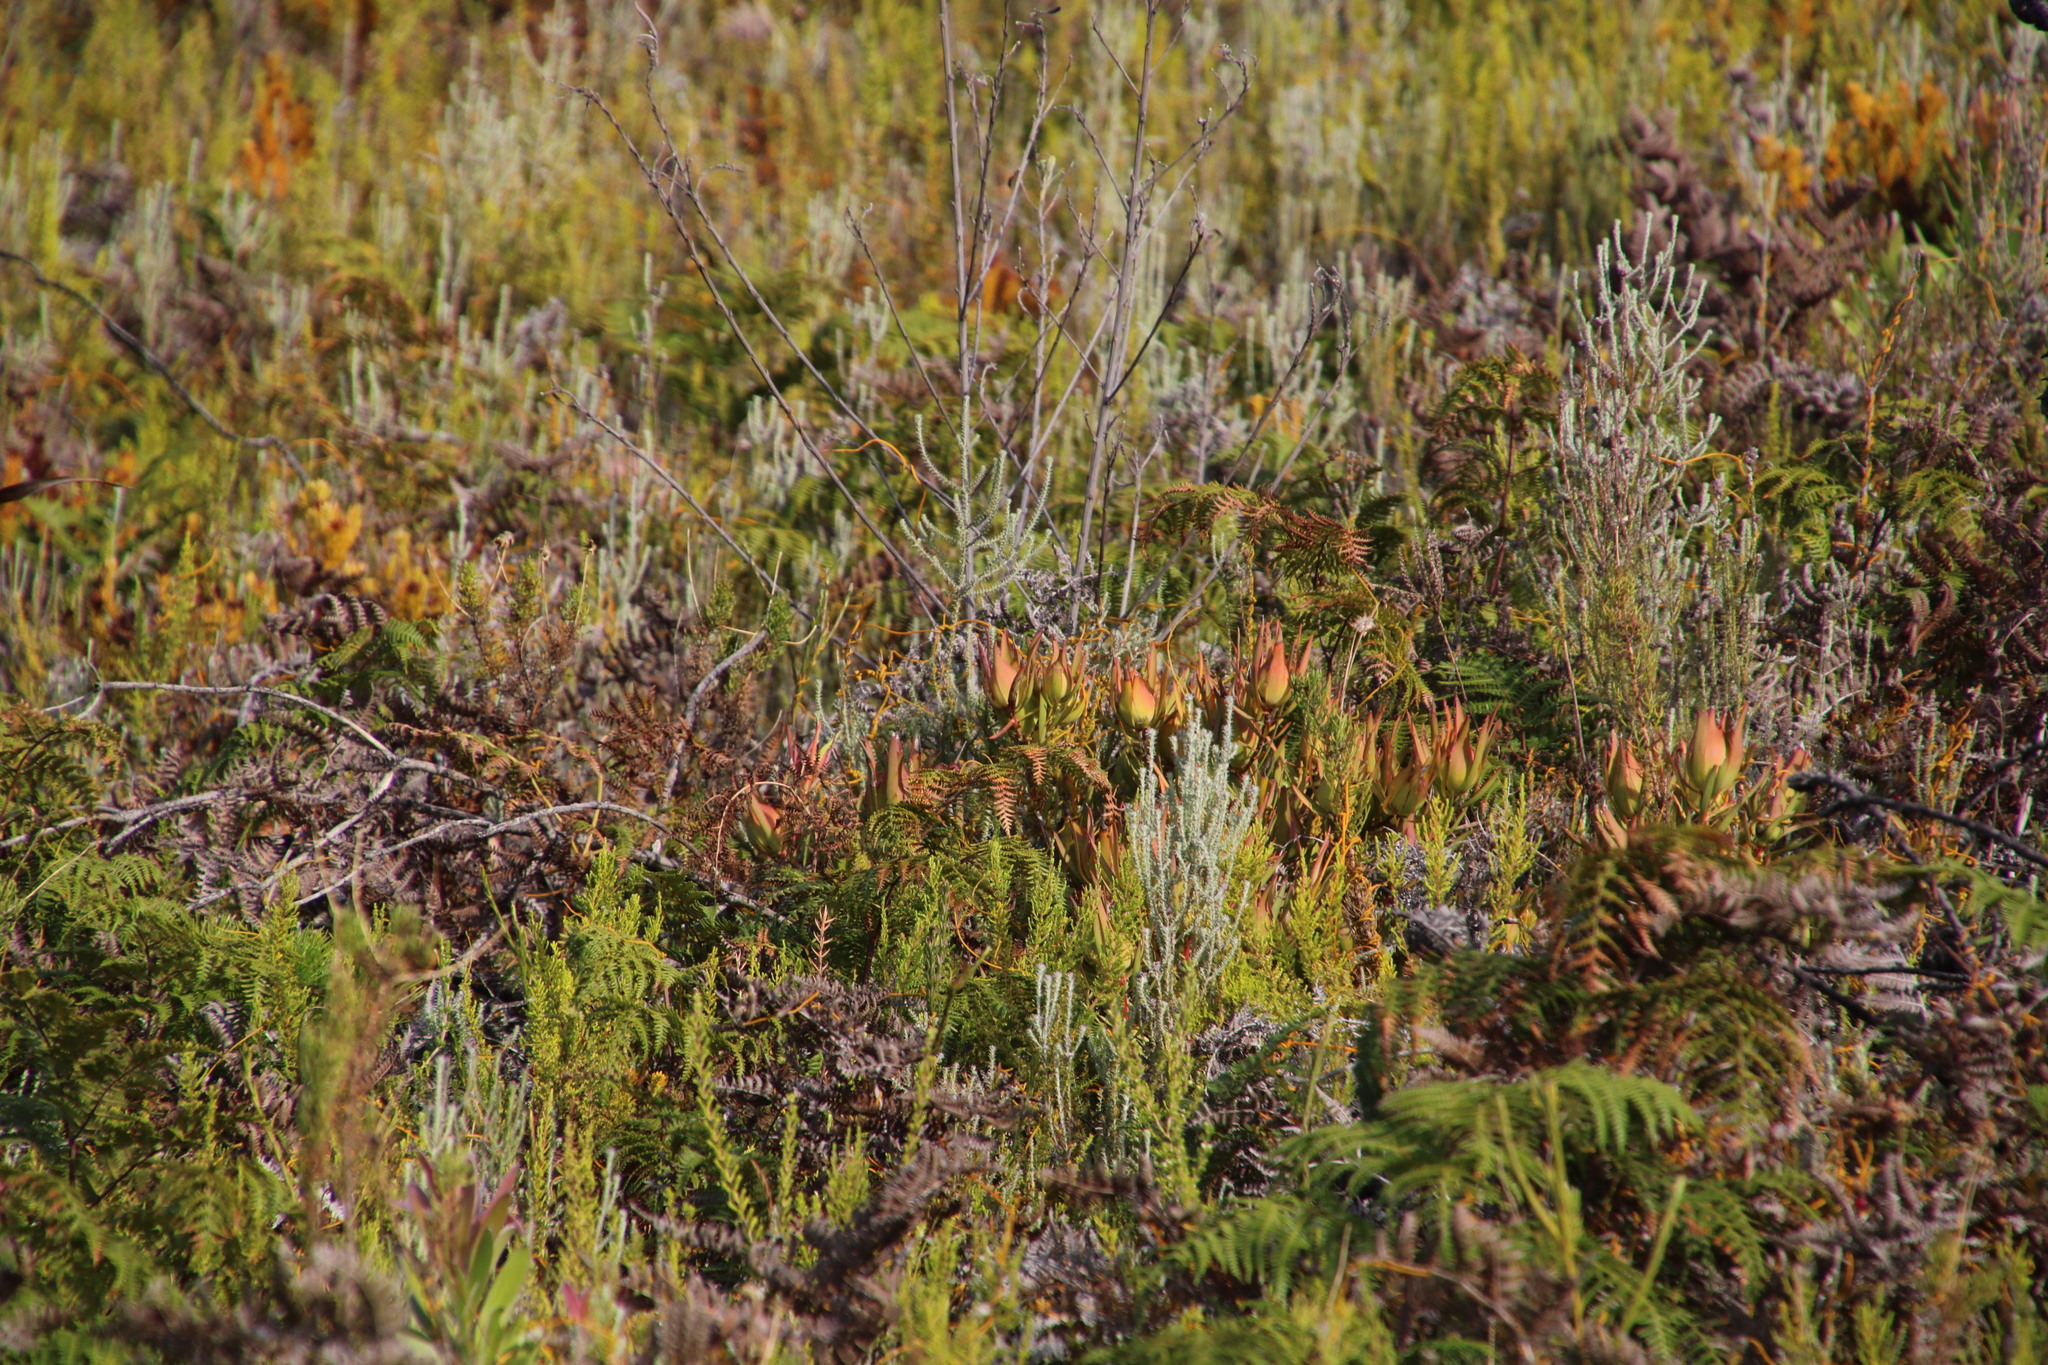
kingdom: Plantae
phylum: Tracheophyta
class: Magnoliopsida
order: Proteales
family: Proteaceae
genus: Leucadendron
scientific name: Leucadendron salignum
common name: Common sunshine conebush
